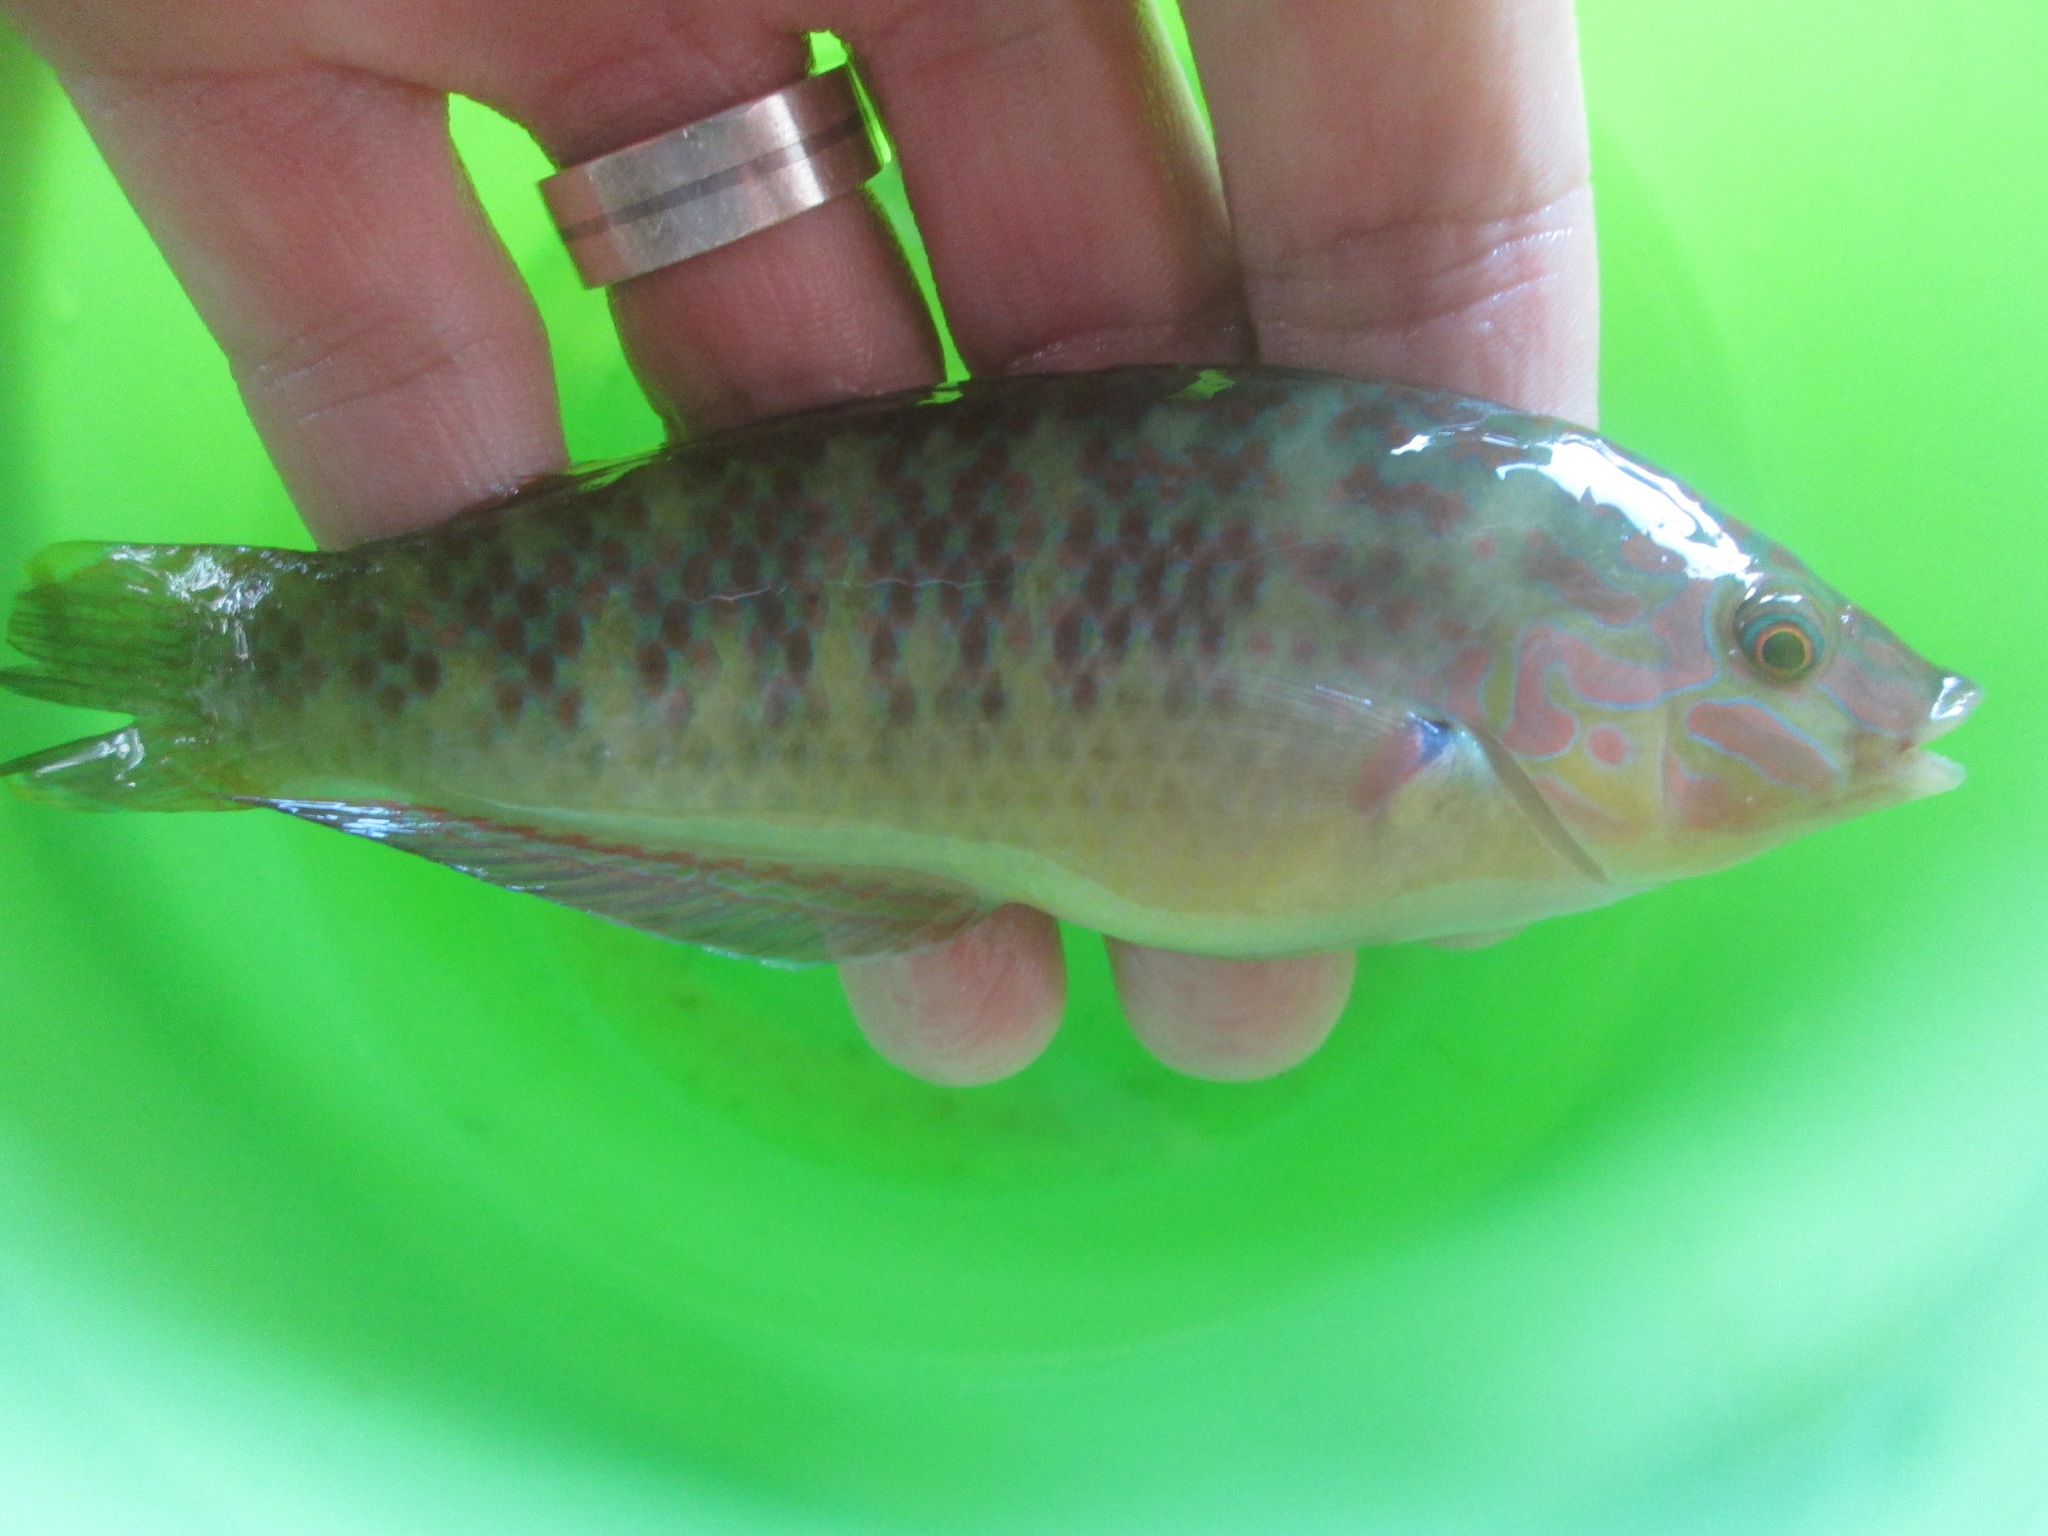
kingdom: Animalia
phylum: Chordata
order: Perciformes
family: Labridae
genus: Halichoeres
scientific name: Halichoeres nigrescens
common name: Bubblefin wrasse
